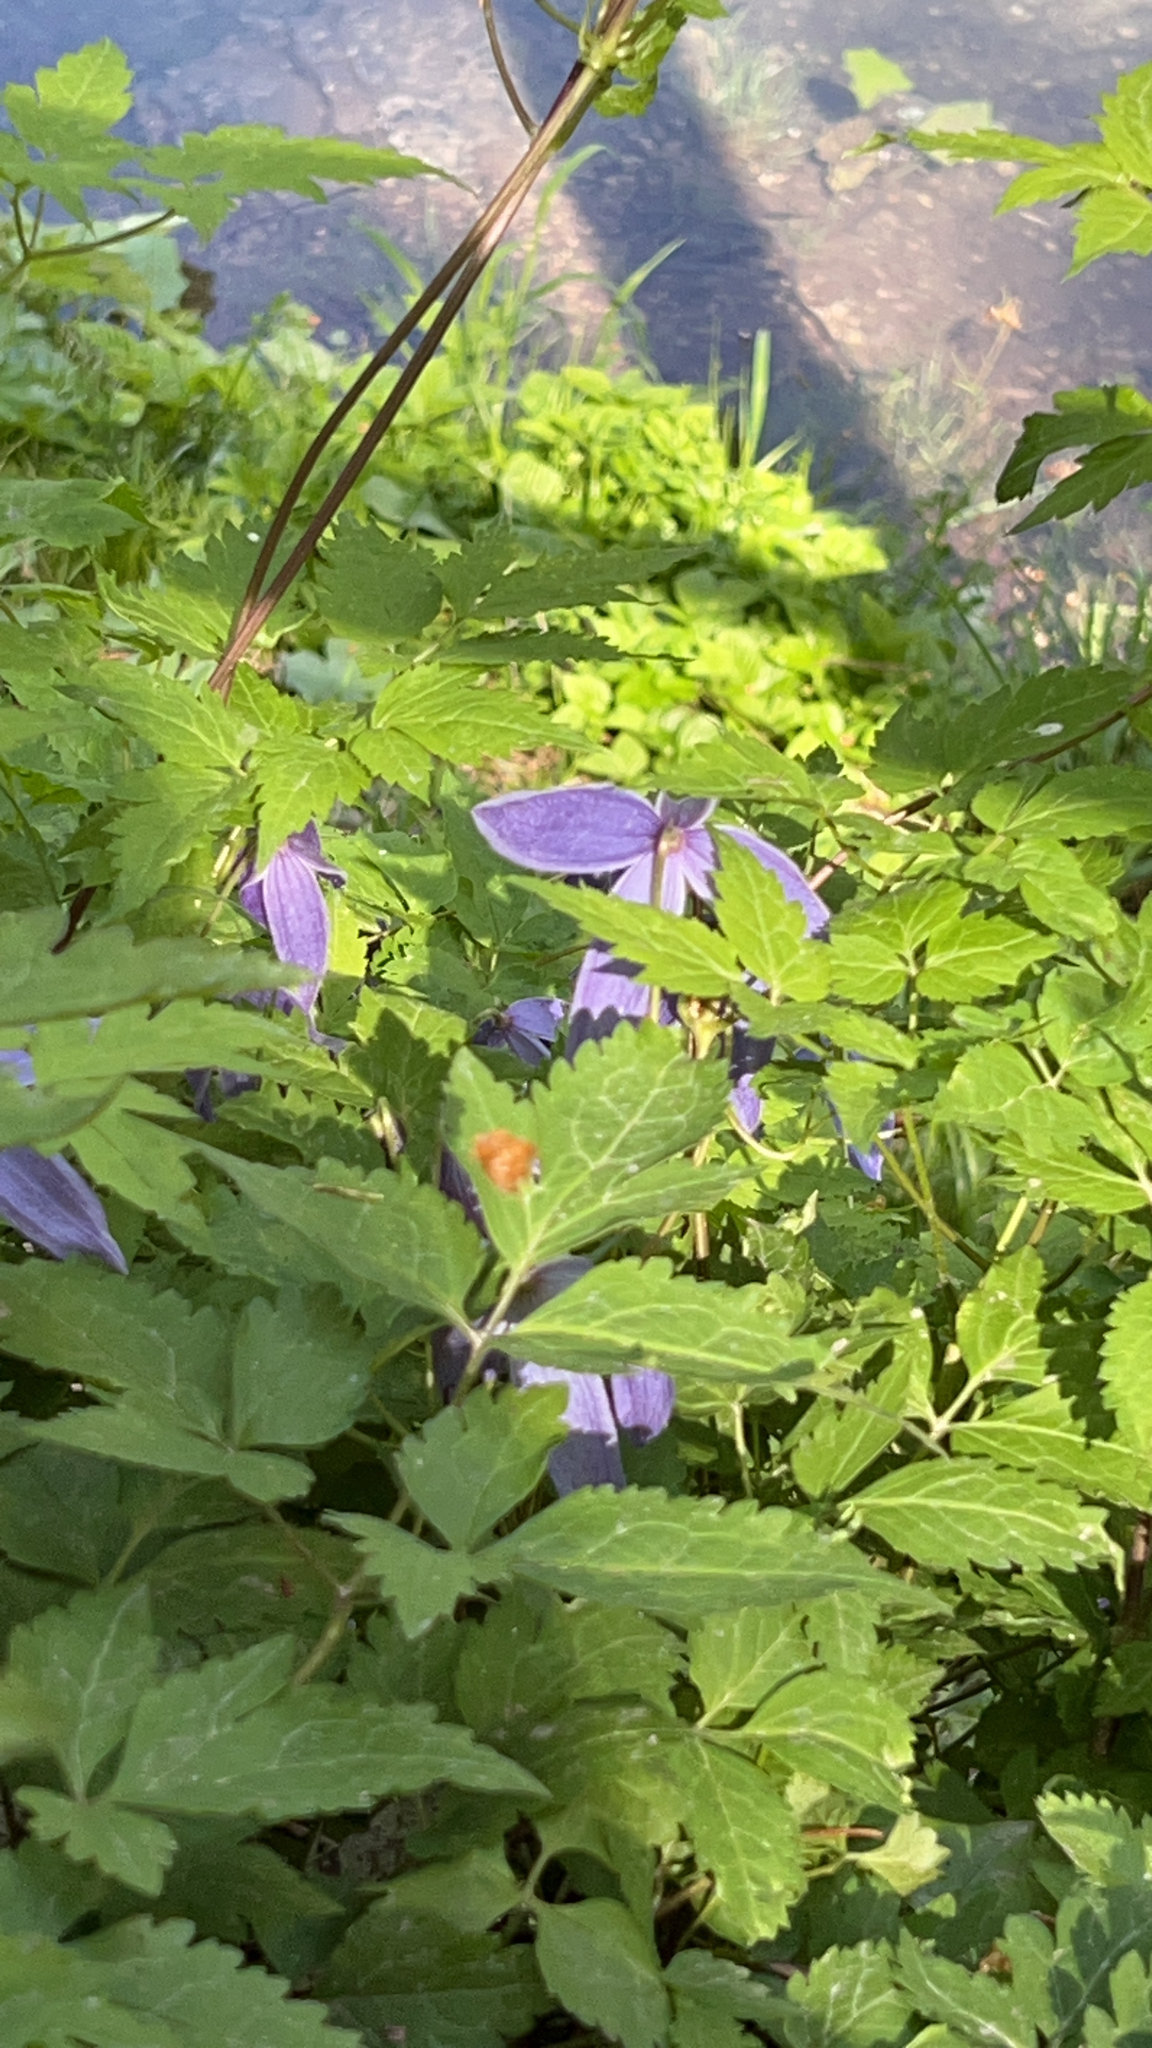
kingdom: Plantae
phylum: Tracheophyta
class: Magnoliopsida
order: Ranunculales
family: Ranunculaceae
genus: Clematis
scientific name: Clematis alpina
